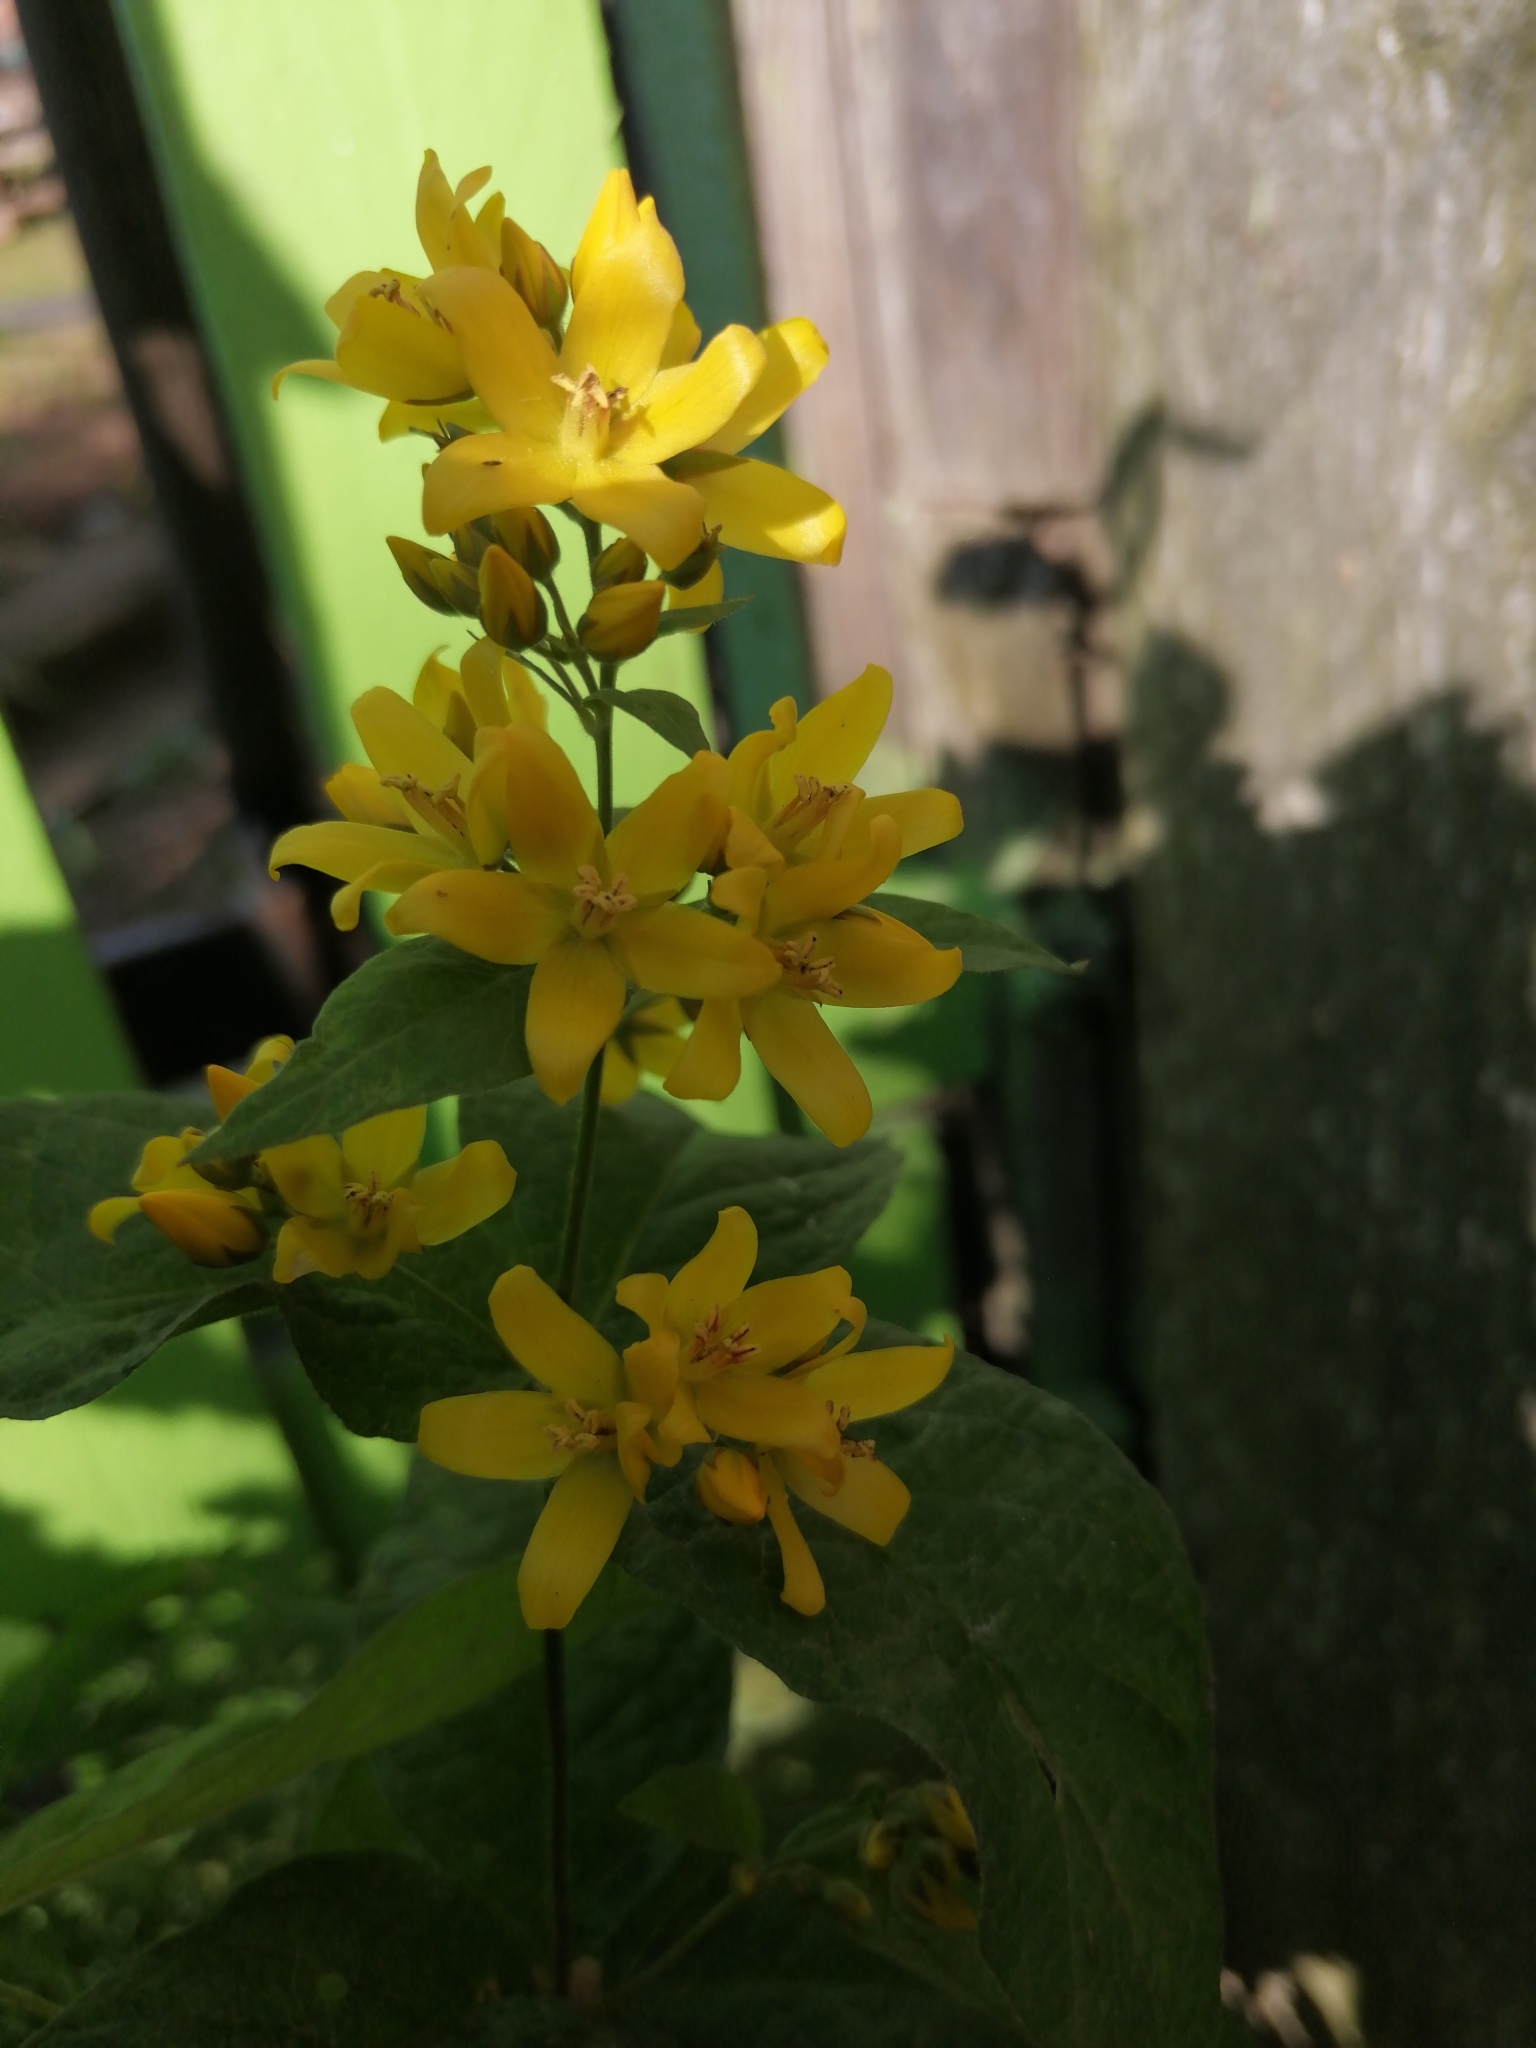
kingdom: Plantae
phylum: Tracheophyta
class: Magnoliopsida
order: Ericales
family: Primulaceae
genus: Lysimachia
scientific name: Lysimachia vulgaris
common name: Yellow loosestrife
